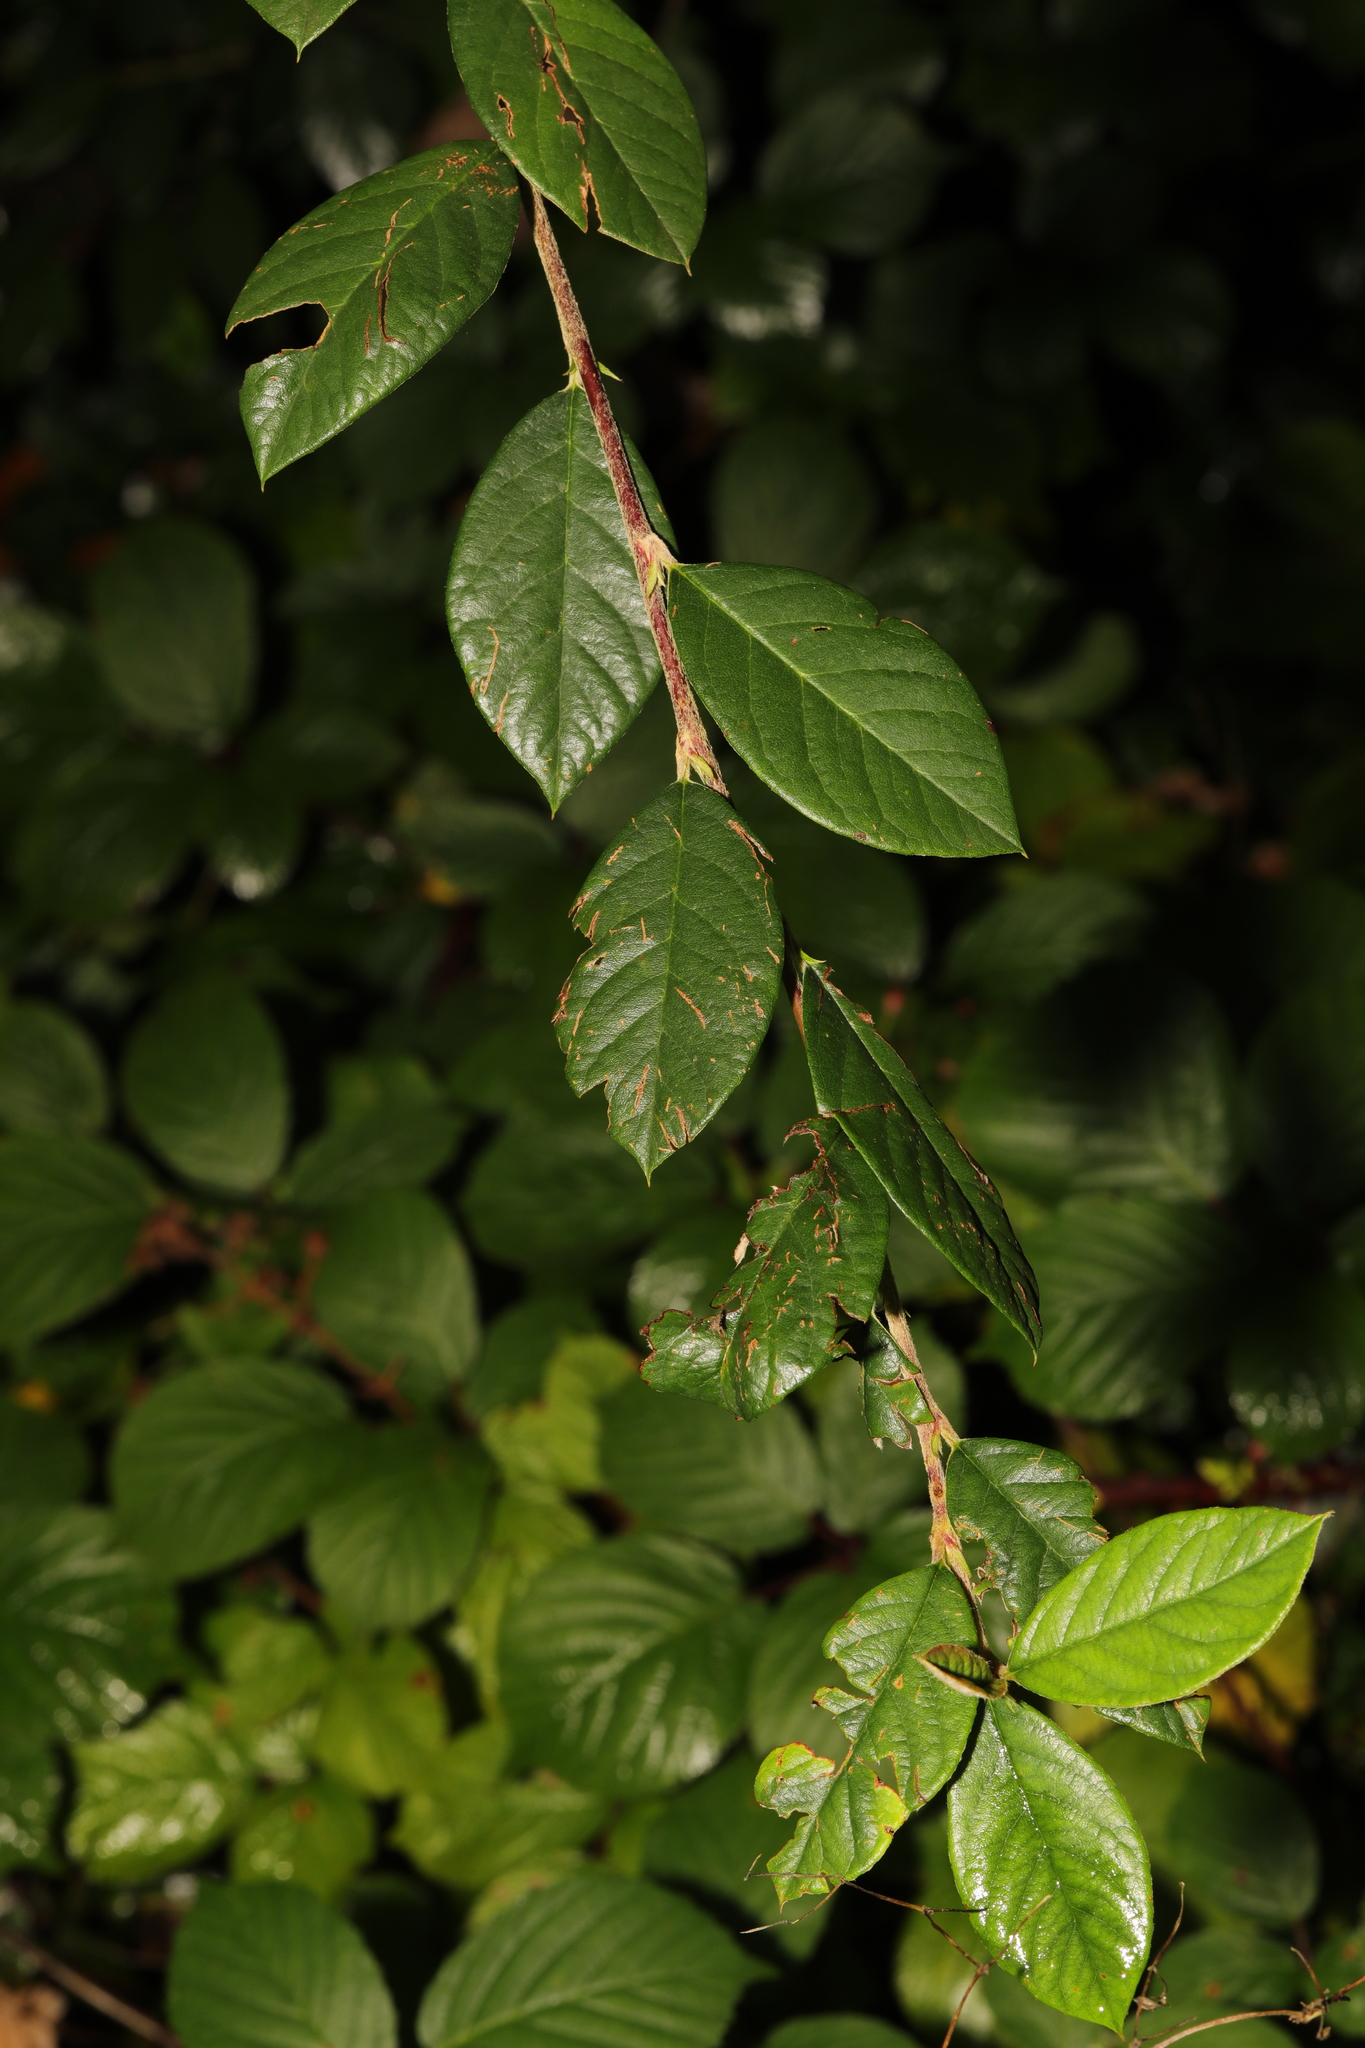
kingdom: Plantae
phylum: Tracheophyta
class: Magnoliopsida
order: Rosales
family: Rosaceae
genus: Cotoneaster
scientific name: Cotoneaster coriaceus
